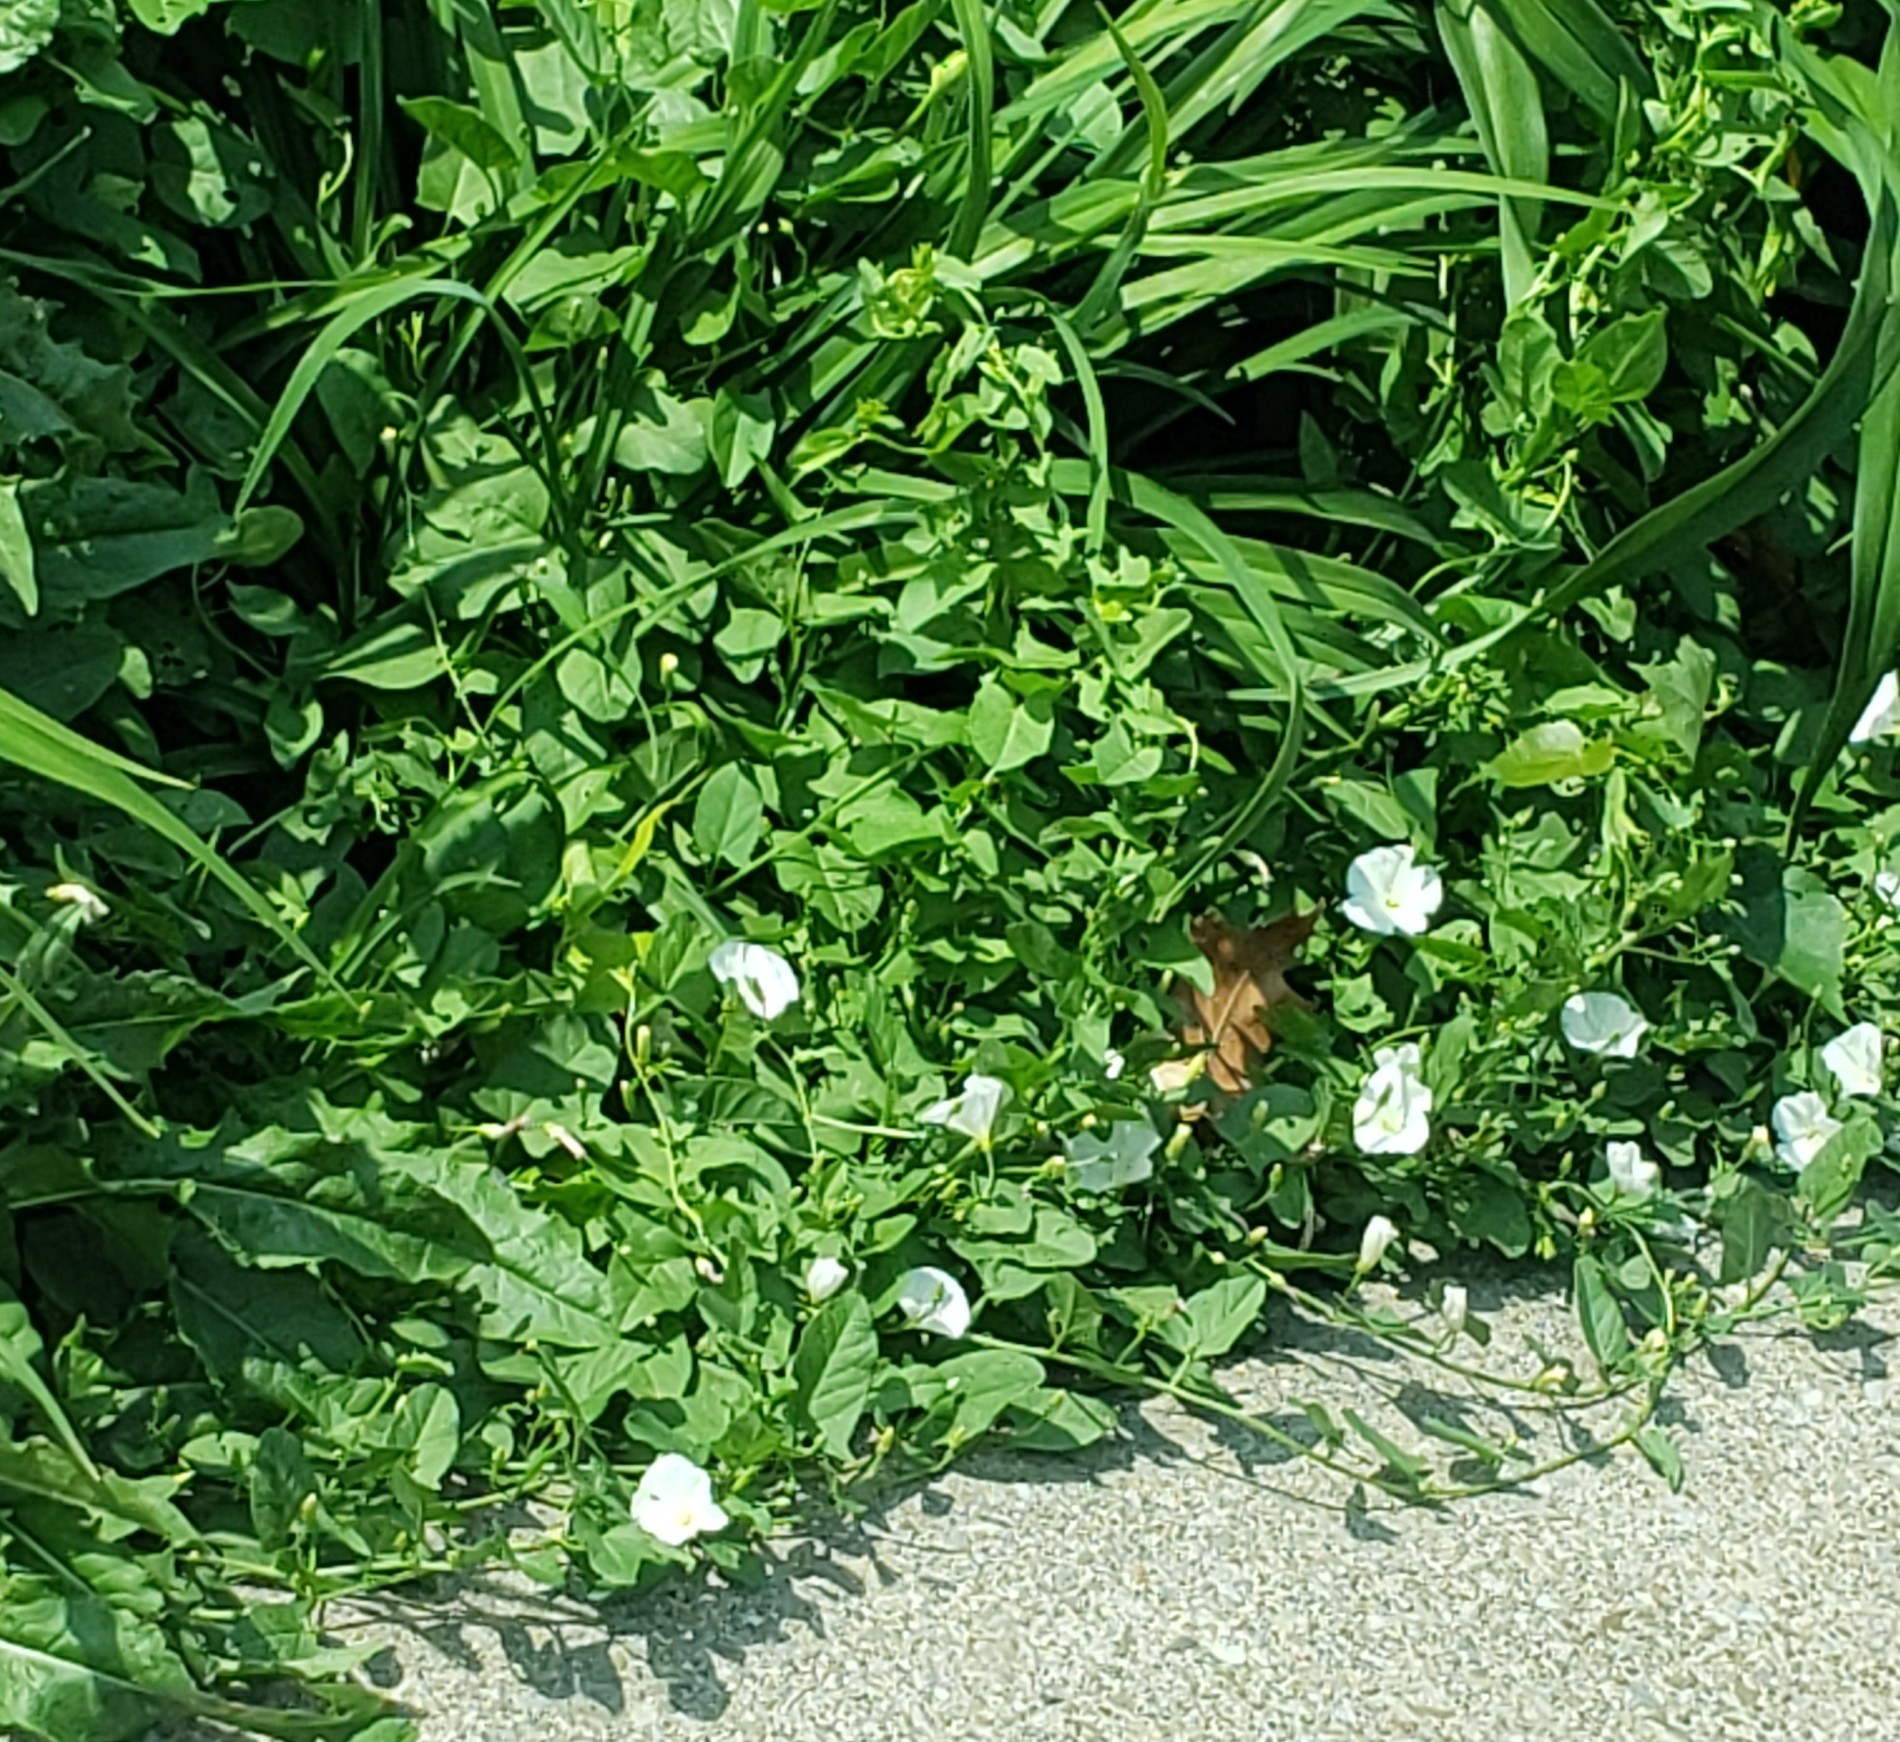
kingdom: Plantae
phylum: Tracheophyta
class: Magnoliopsida
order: Solanales
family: Convolvulaceae
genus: Calystegia
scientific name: Calystegia sepium
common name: Hedge bindweed
